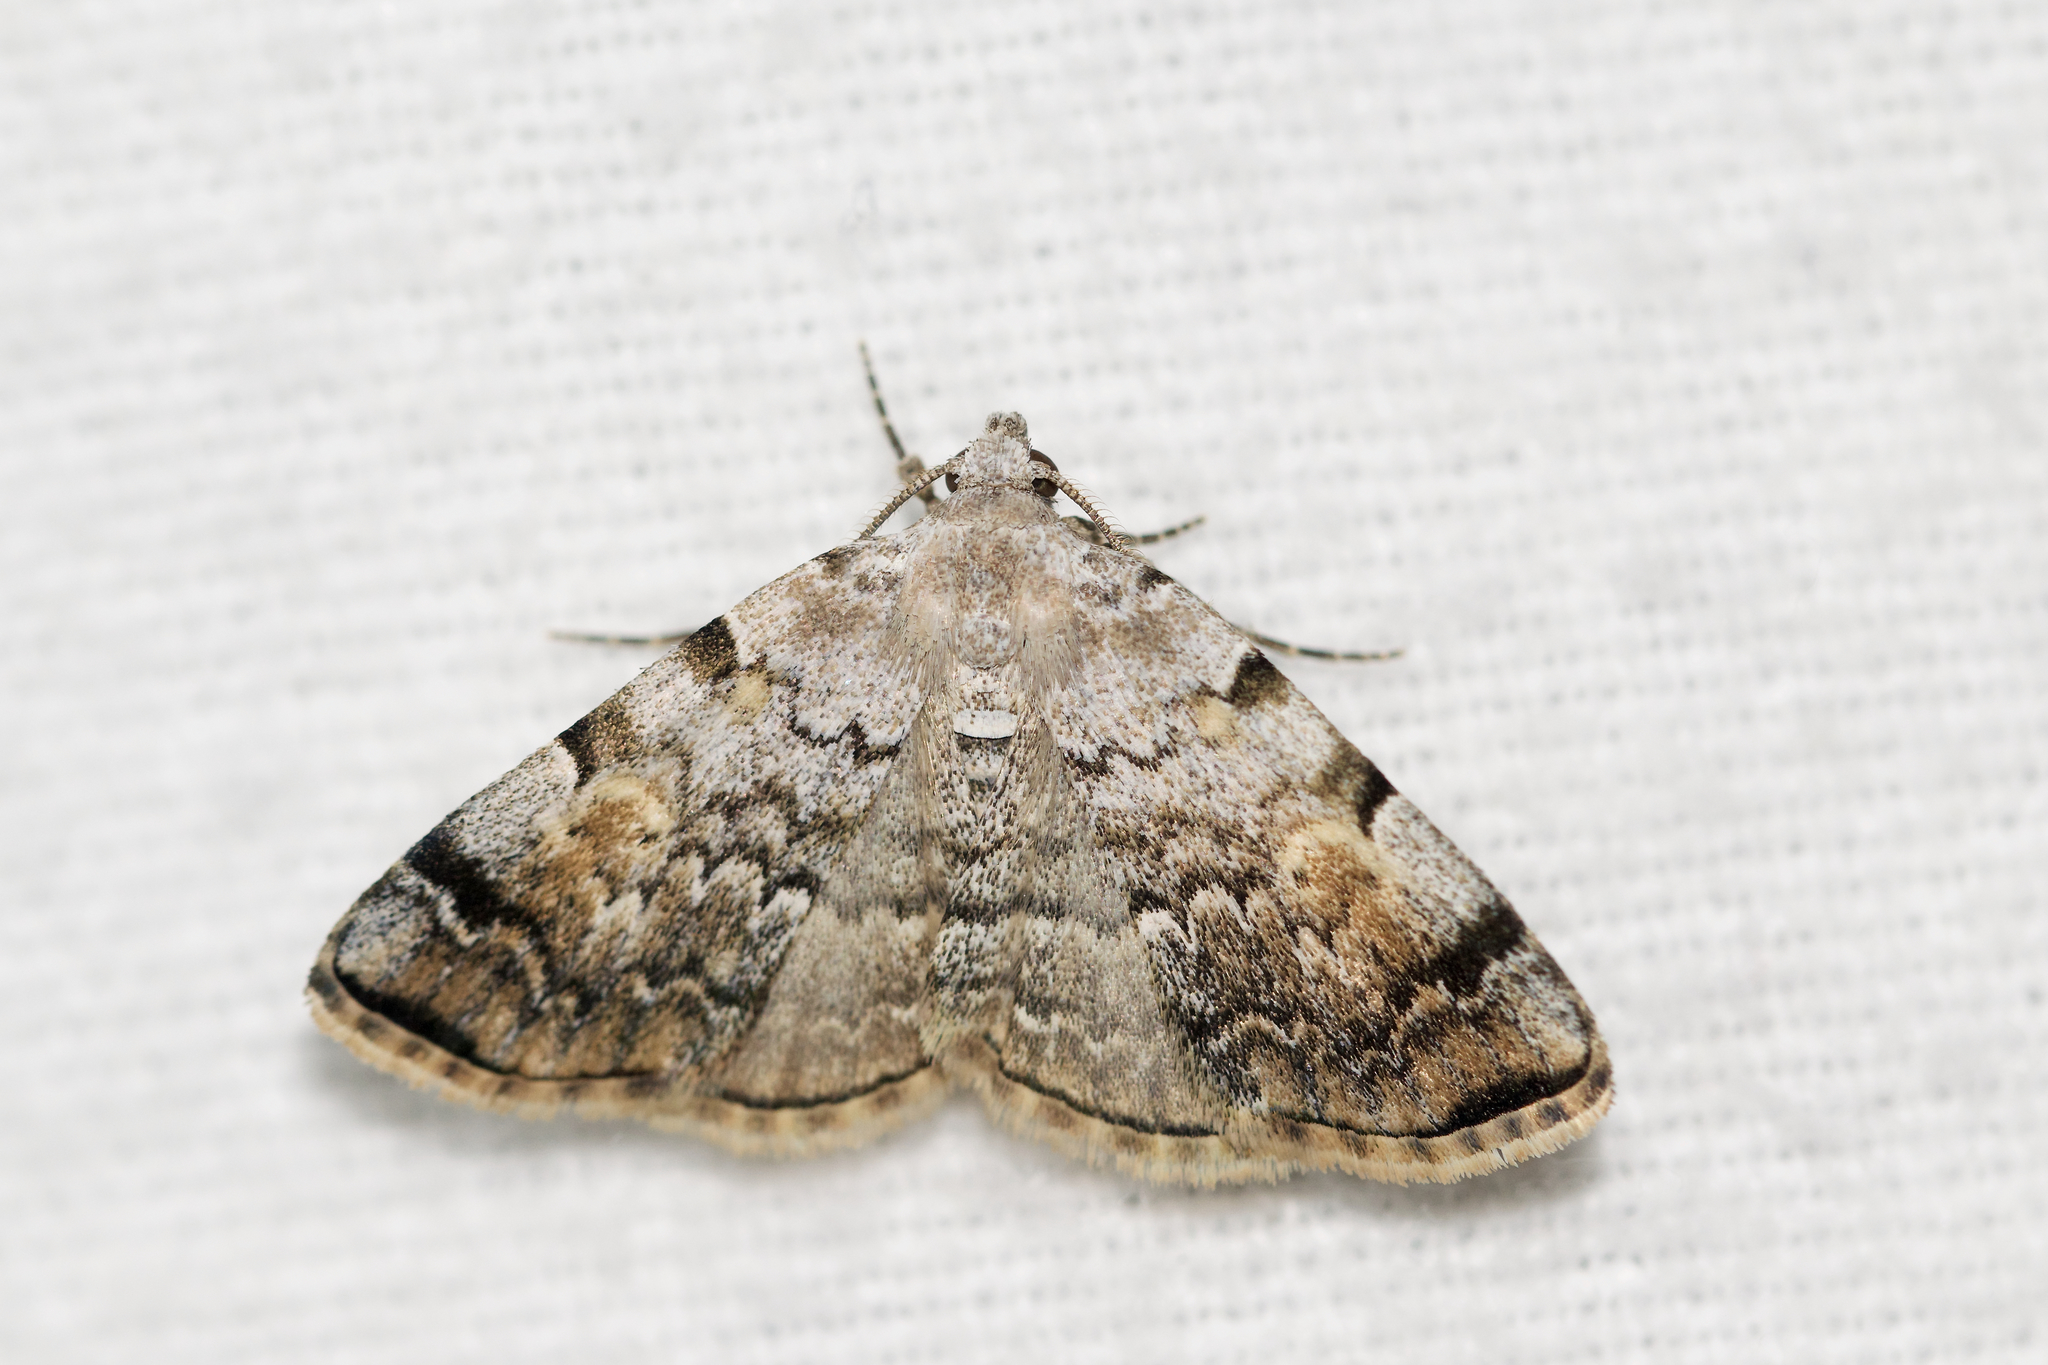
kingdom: Animalia
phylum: Arthropoda
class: Insecta
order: Lepidoptera
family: Erebidae
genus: Idia
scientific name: Idia americalis
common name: American idia moth
